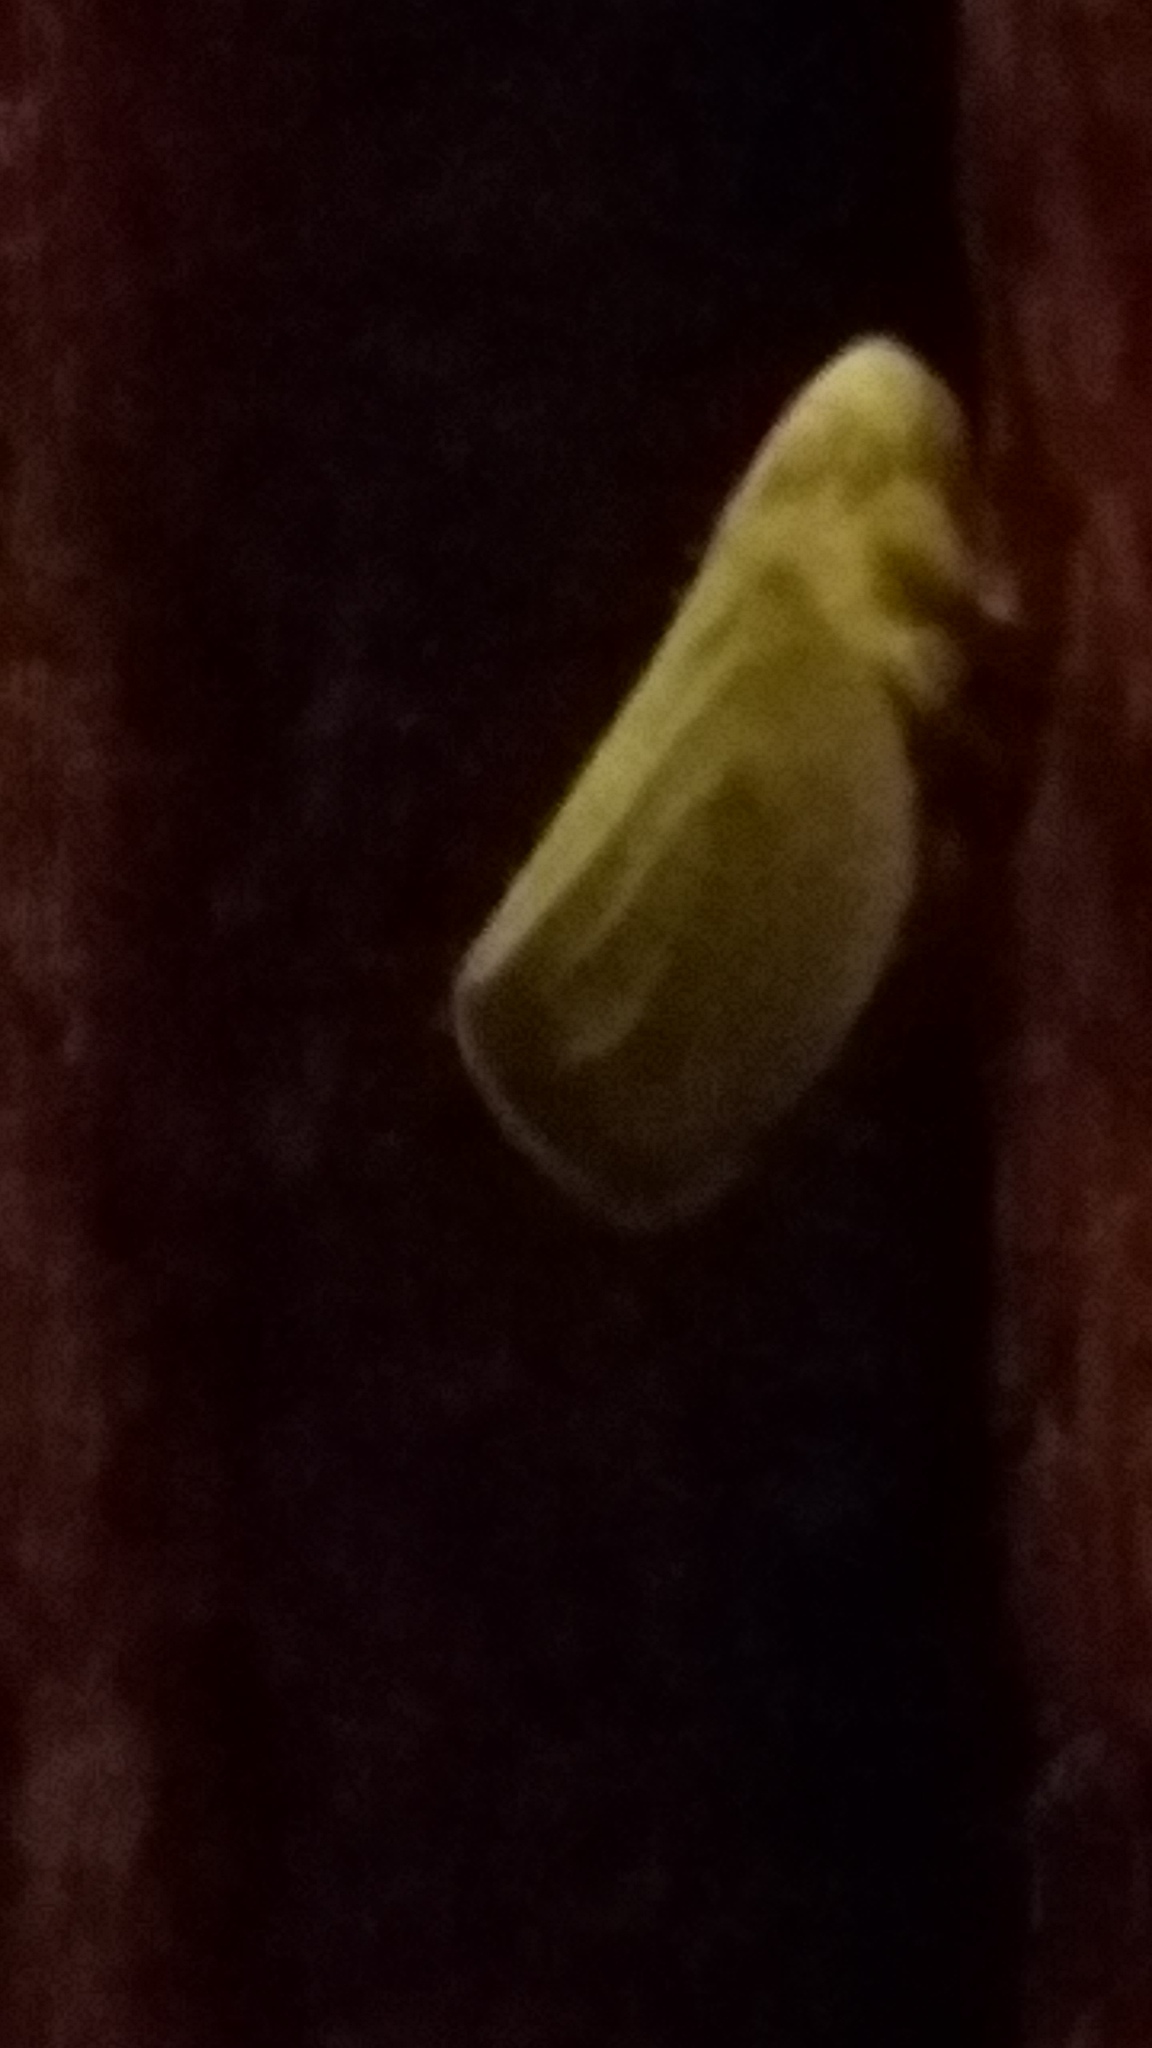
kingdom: Animalia
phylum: Arthropoda
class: Insecta
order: Hemiptera
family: Acanaloniidae
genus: Acanalonia
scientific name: Acanalonia clypeata
